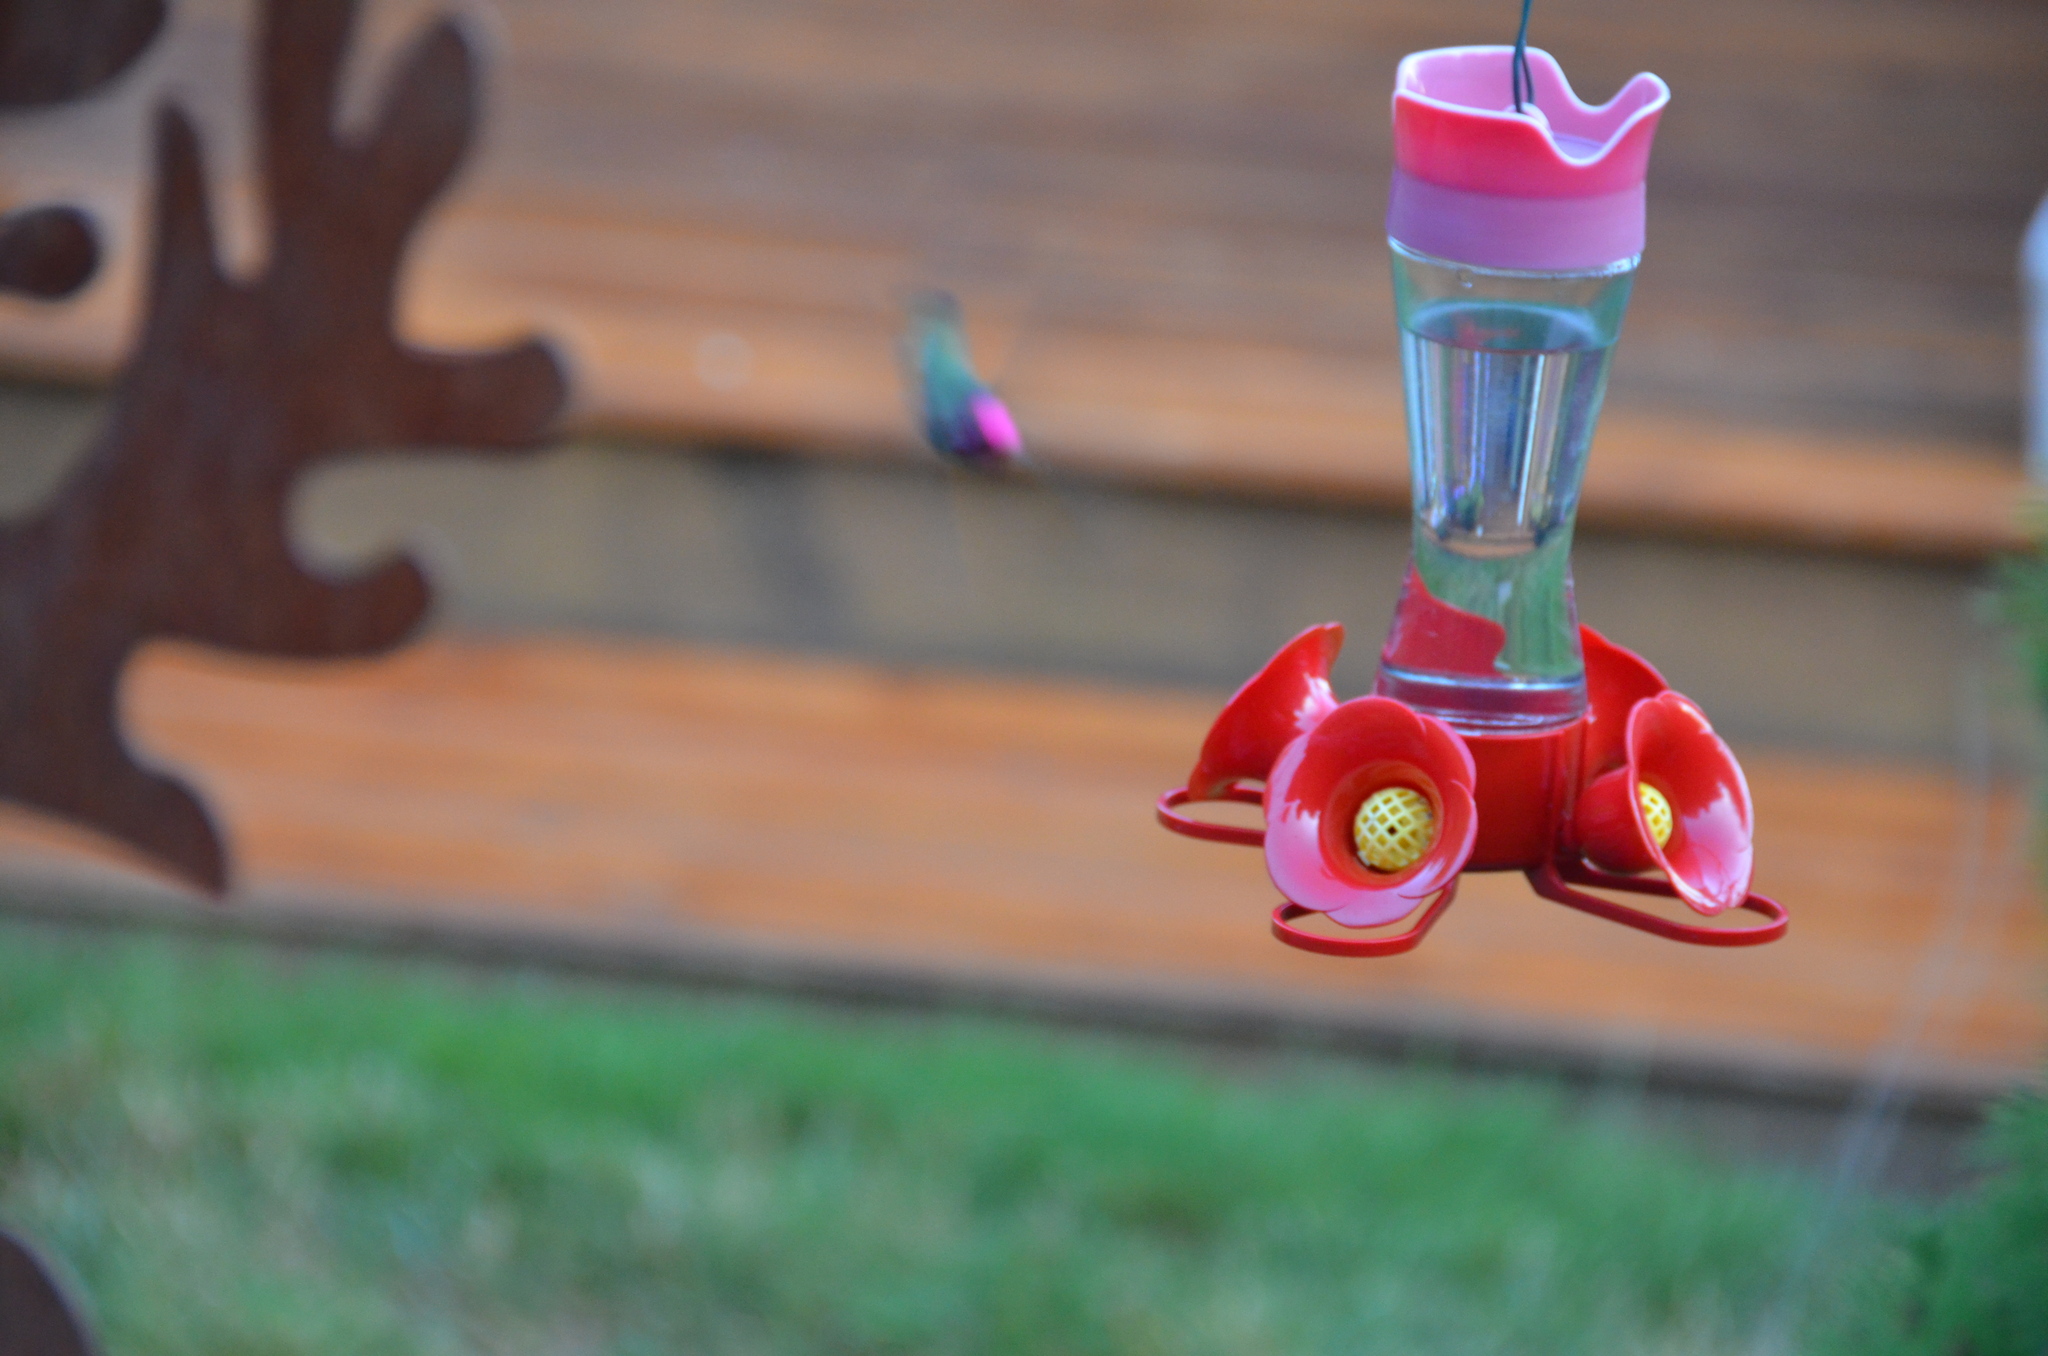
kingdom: Animalia
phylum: Chordata
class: Aves
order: Apodiformes
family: Trochilidae
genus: Calypte
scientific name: Calypte anna
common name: Anna's hummingbird
